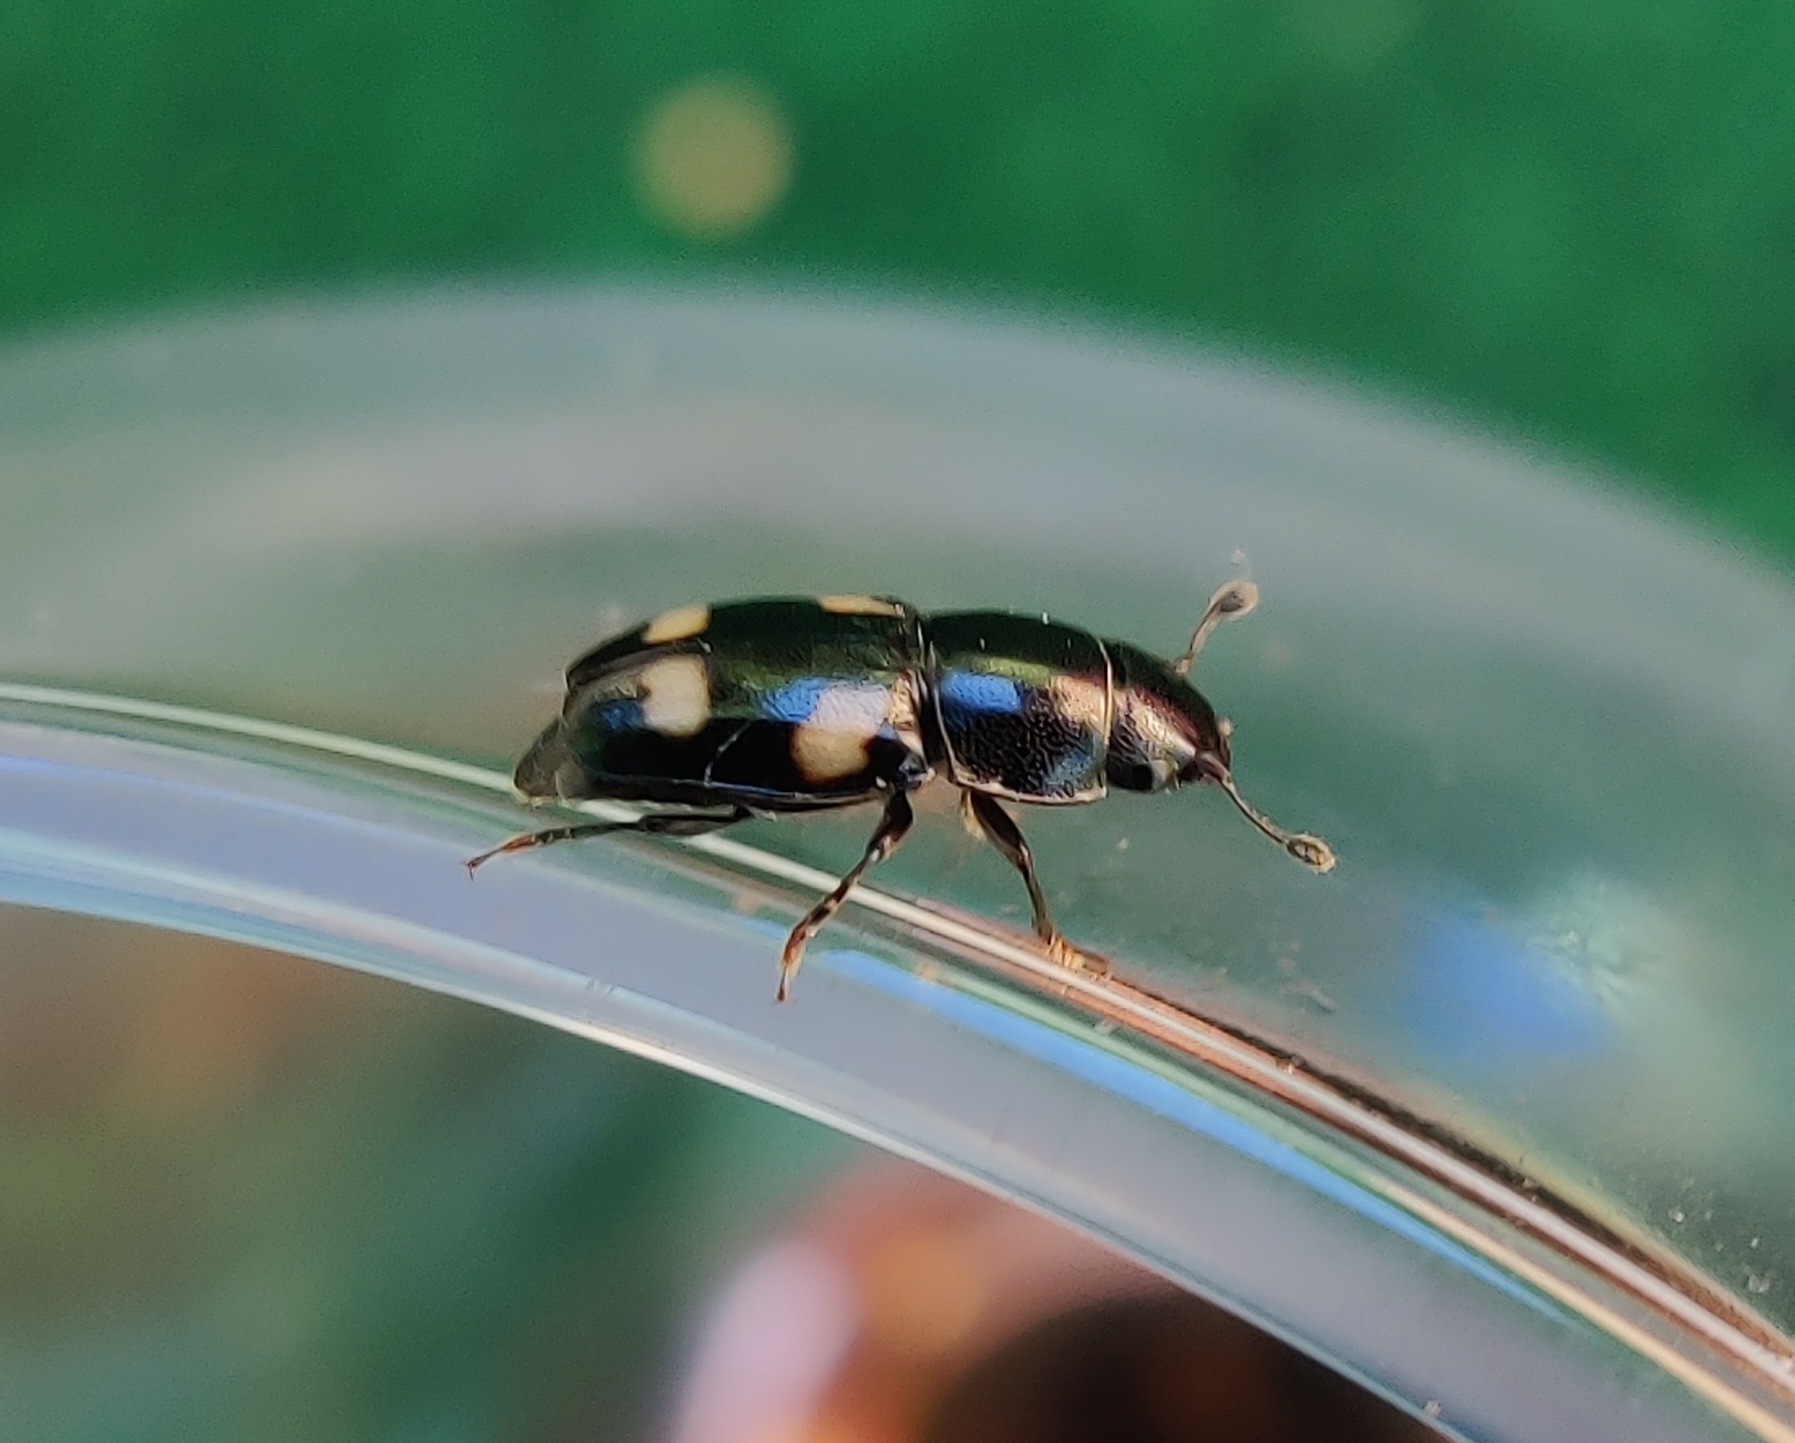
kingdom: Animalia
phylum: Arthropoda
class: Insecta
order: Coleoptera
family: Nitidulidae
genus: Glischrochilus
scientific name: Glischrochilus quadrisignatus
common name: Picnic beetle
